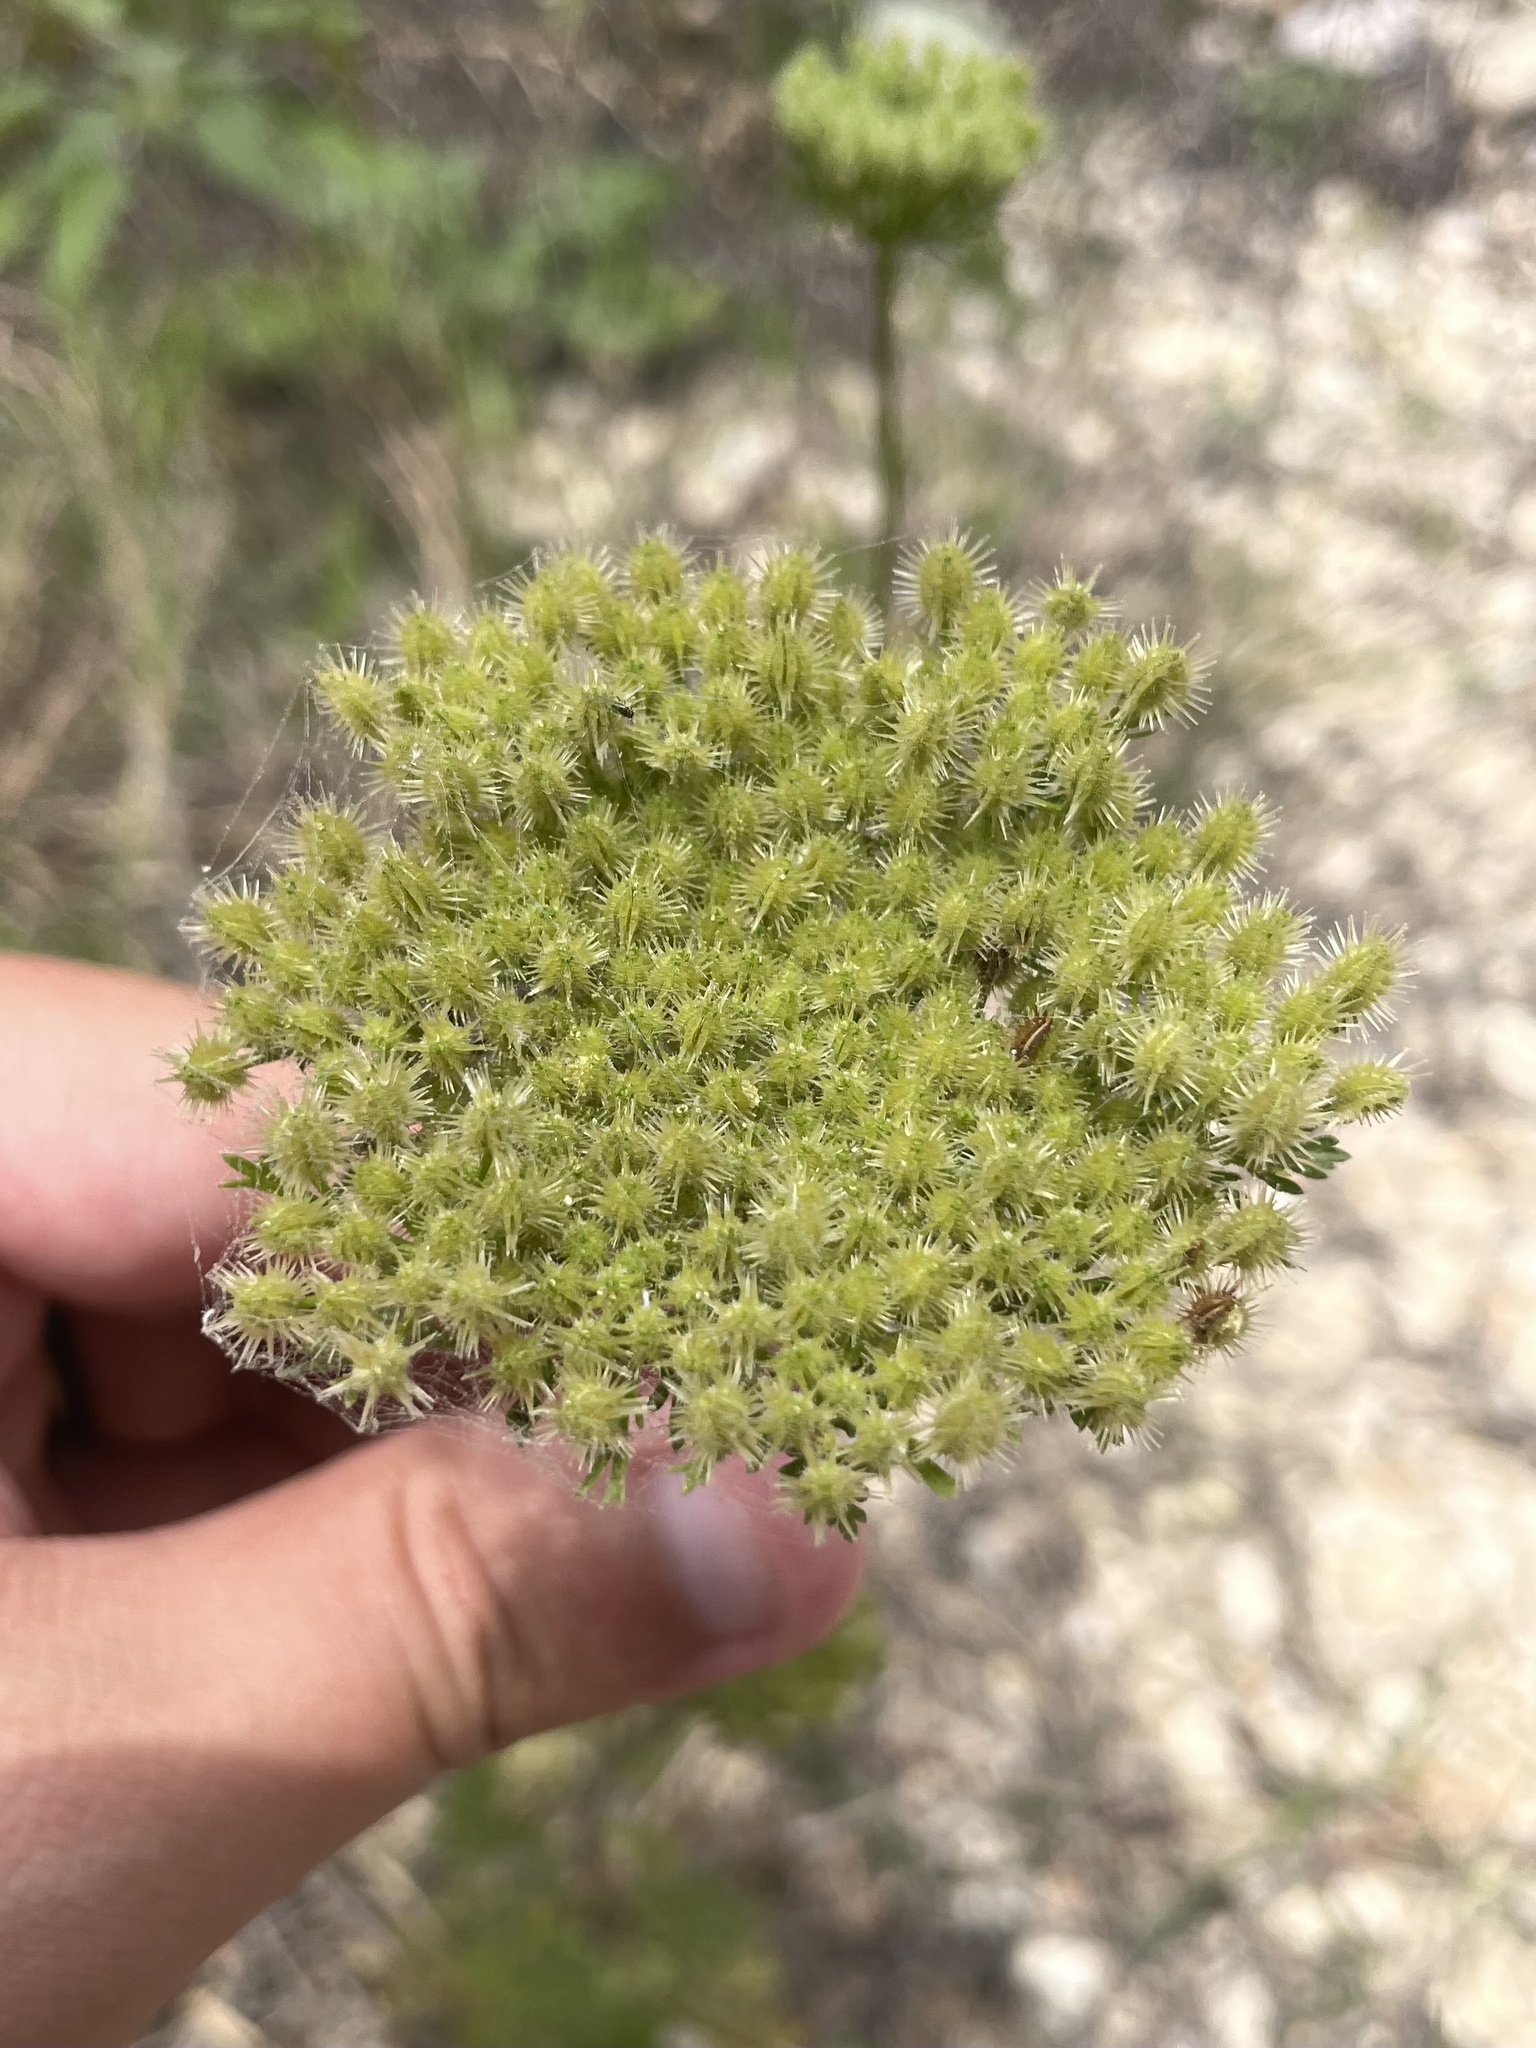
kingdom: Plantae
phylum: Tracheophyta
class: Magnoliopsida
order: Apiales
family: Apiaceae
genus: Daucus
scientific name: Daucus pusillus
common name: Southwest wild carrot
